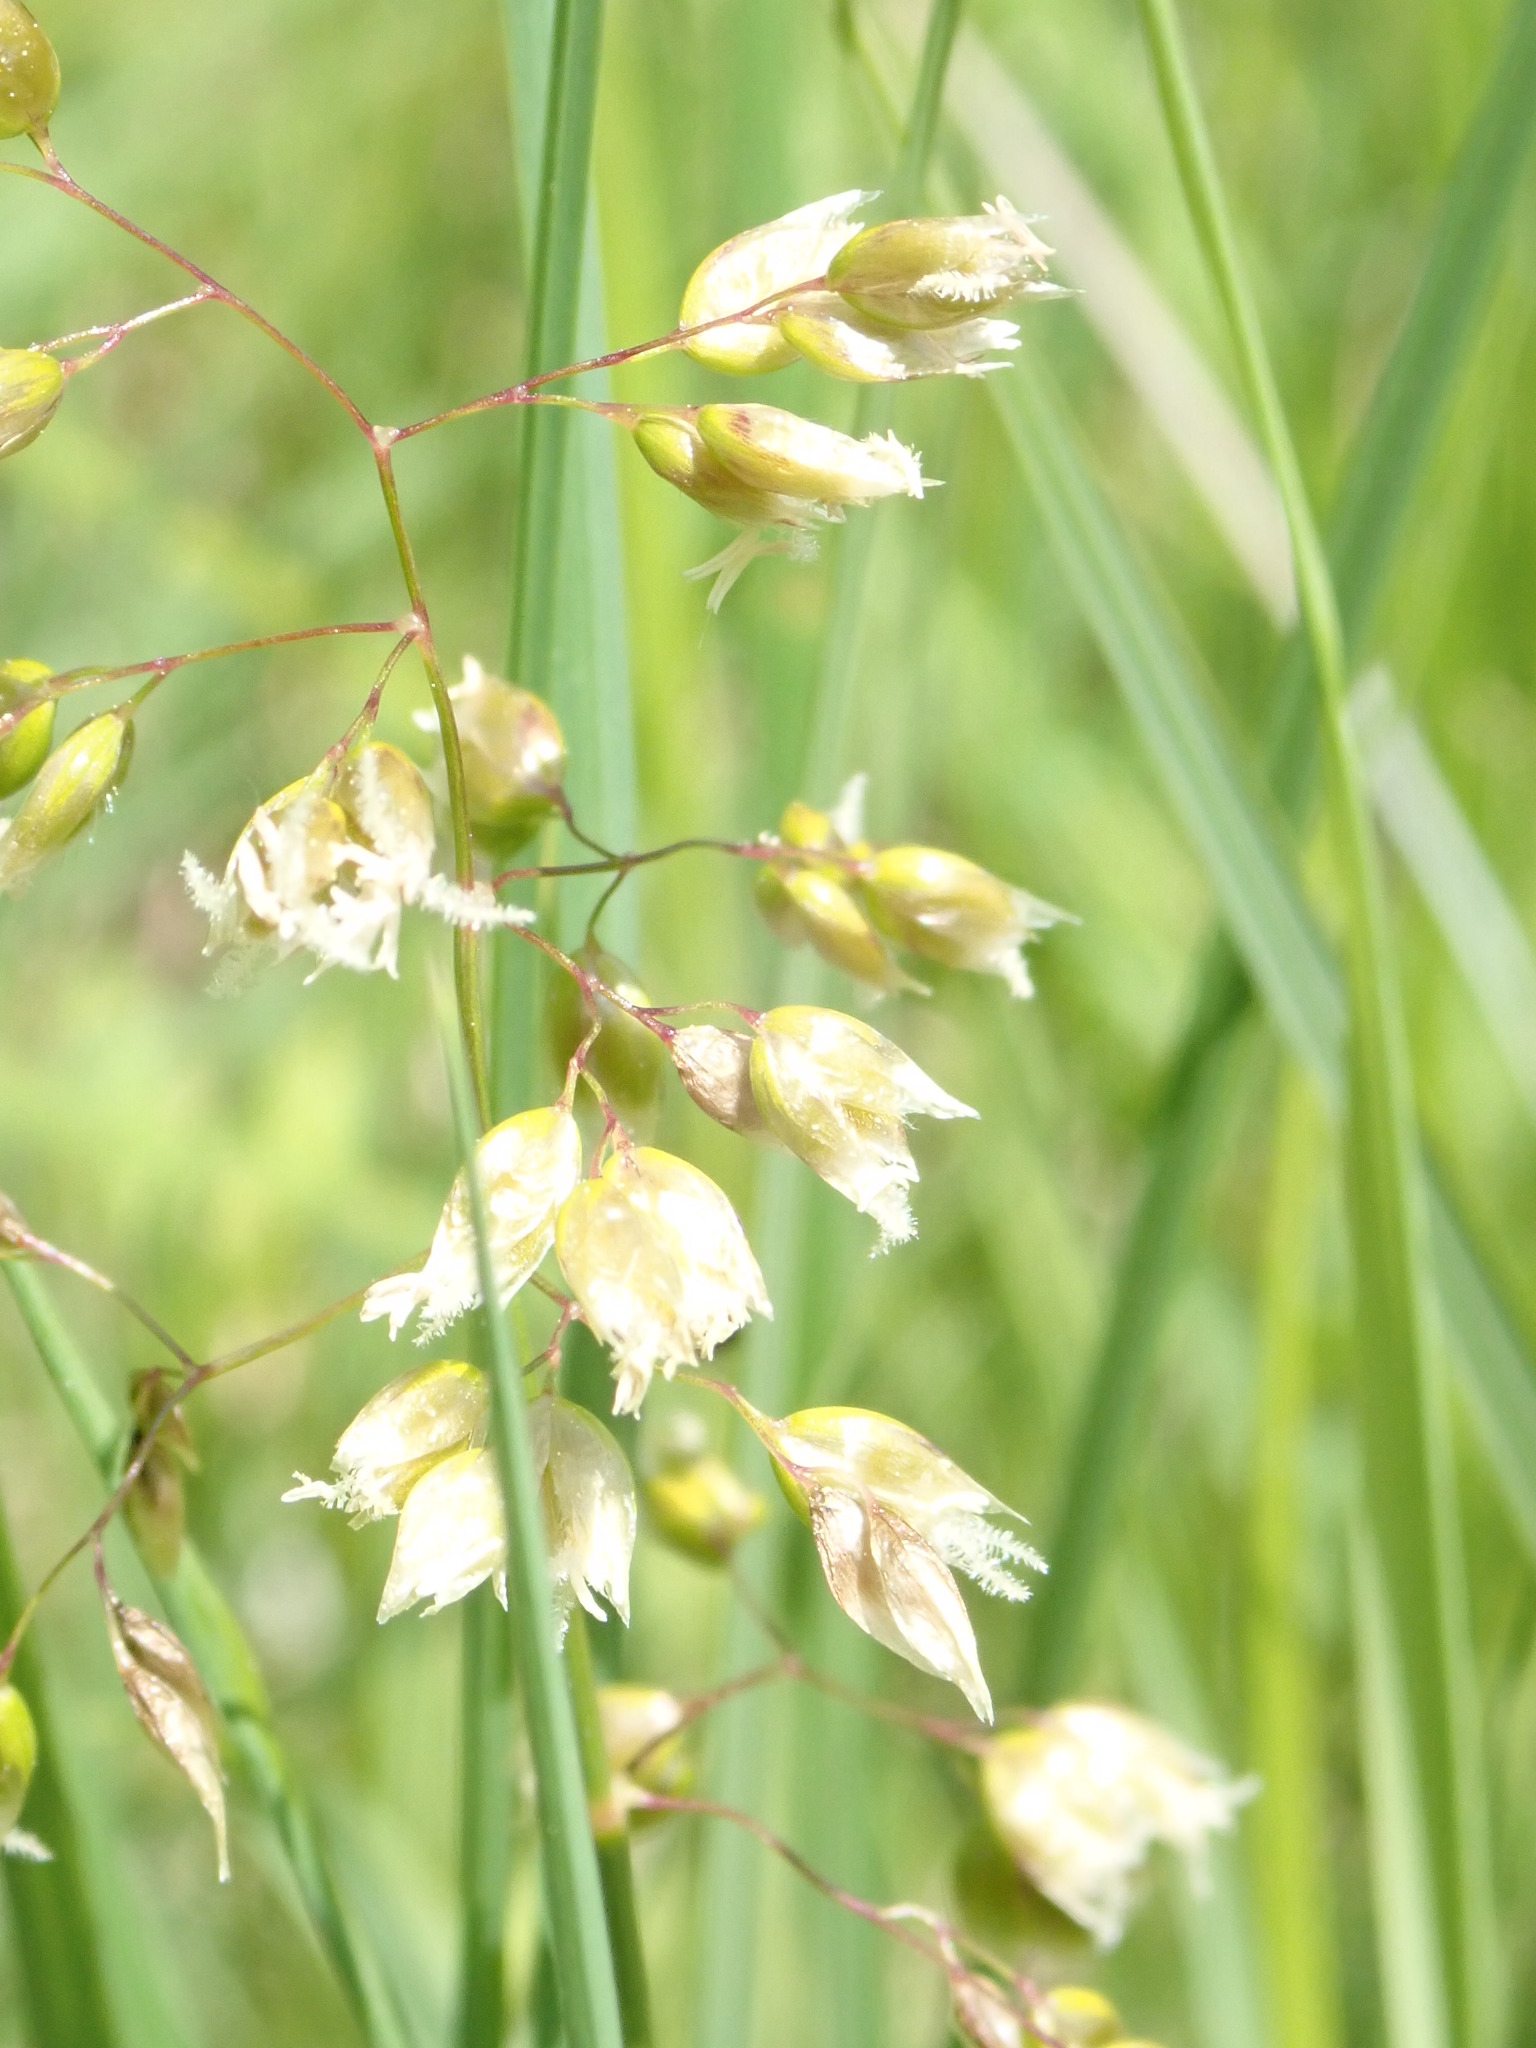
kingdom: Plantae
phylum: Tracheophyta
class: Liliopsida
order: Poales
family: Poaceae
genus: Anthoxanthum
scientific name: Anthoxanthum nitens
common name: Holy grass
